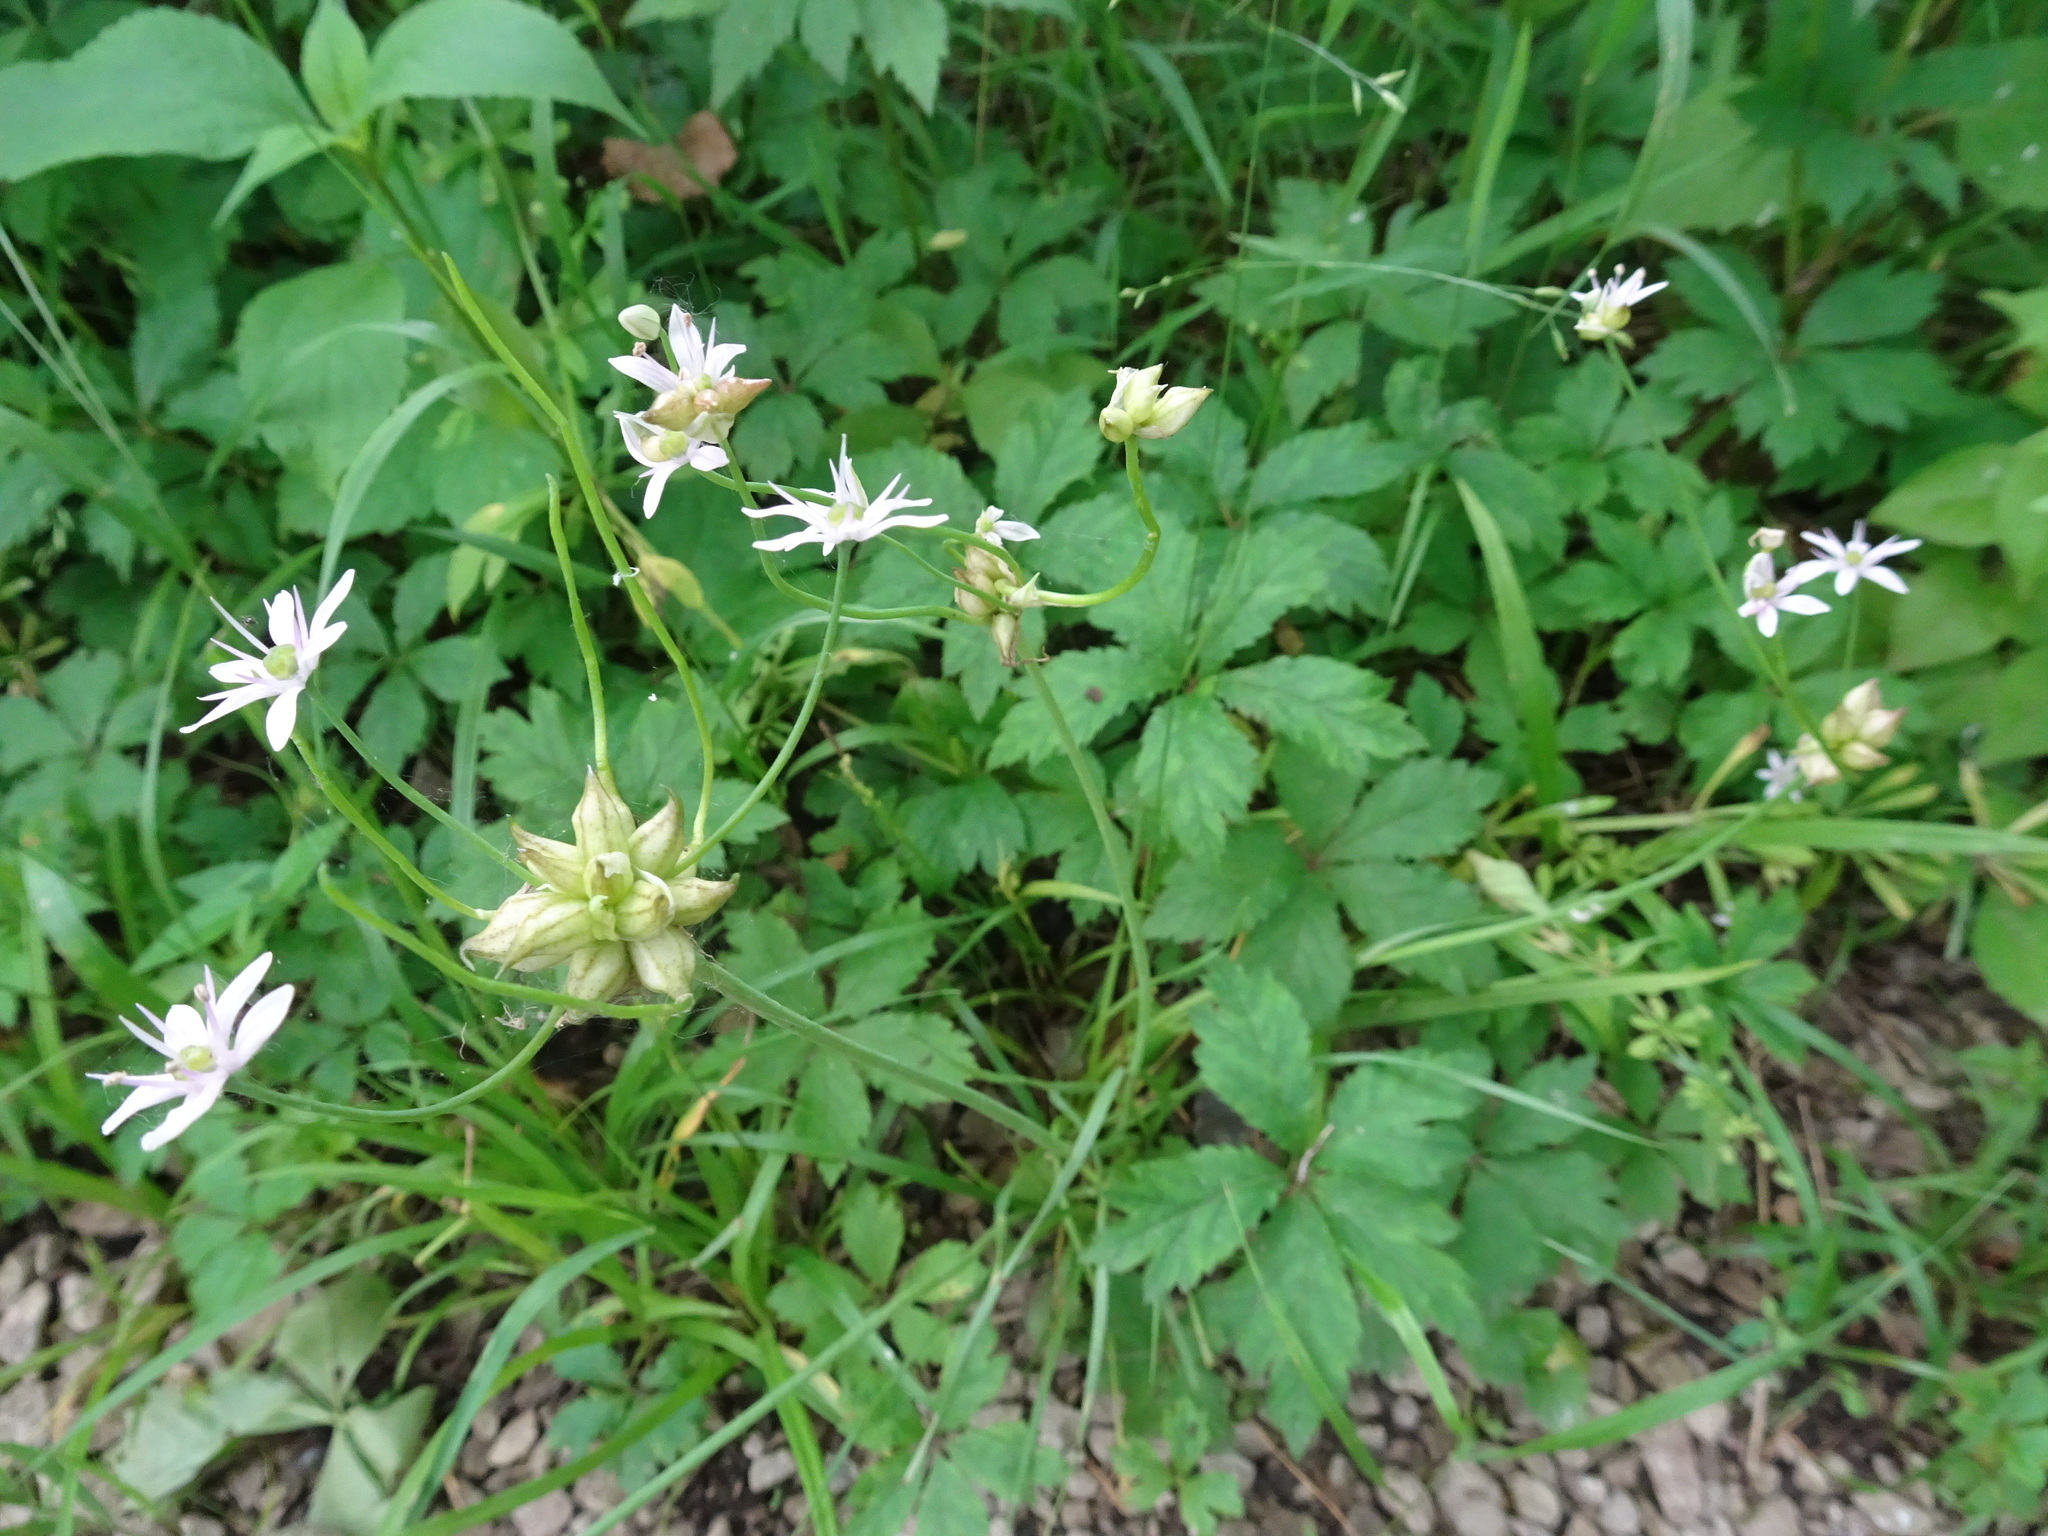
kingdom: Plantae
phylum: Tracheophyta
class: Liliopsida
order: Asparagales
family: Amaryllidaceae
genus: Allium
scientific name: Allium canadense
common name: Meadow garlic
